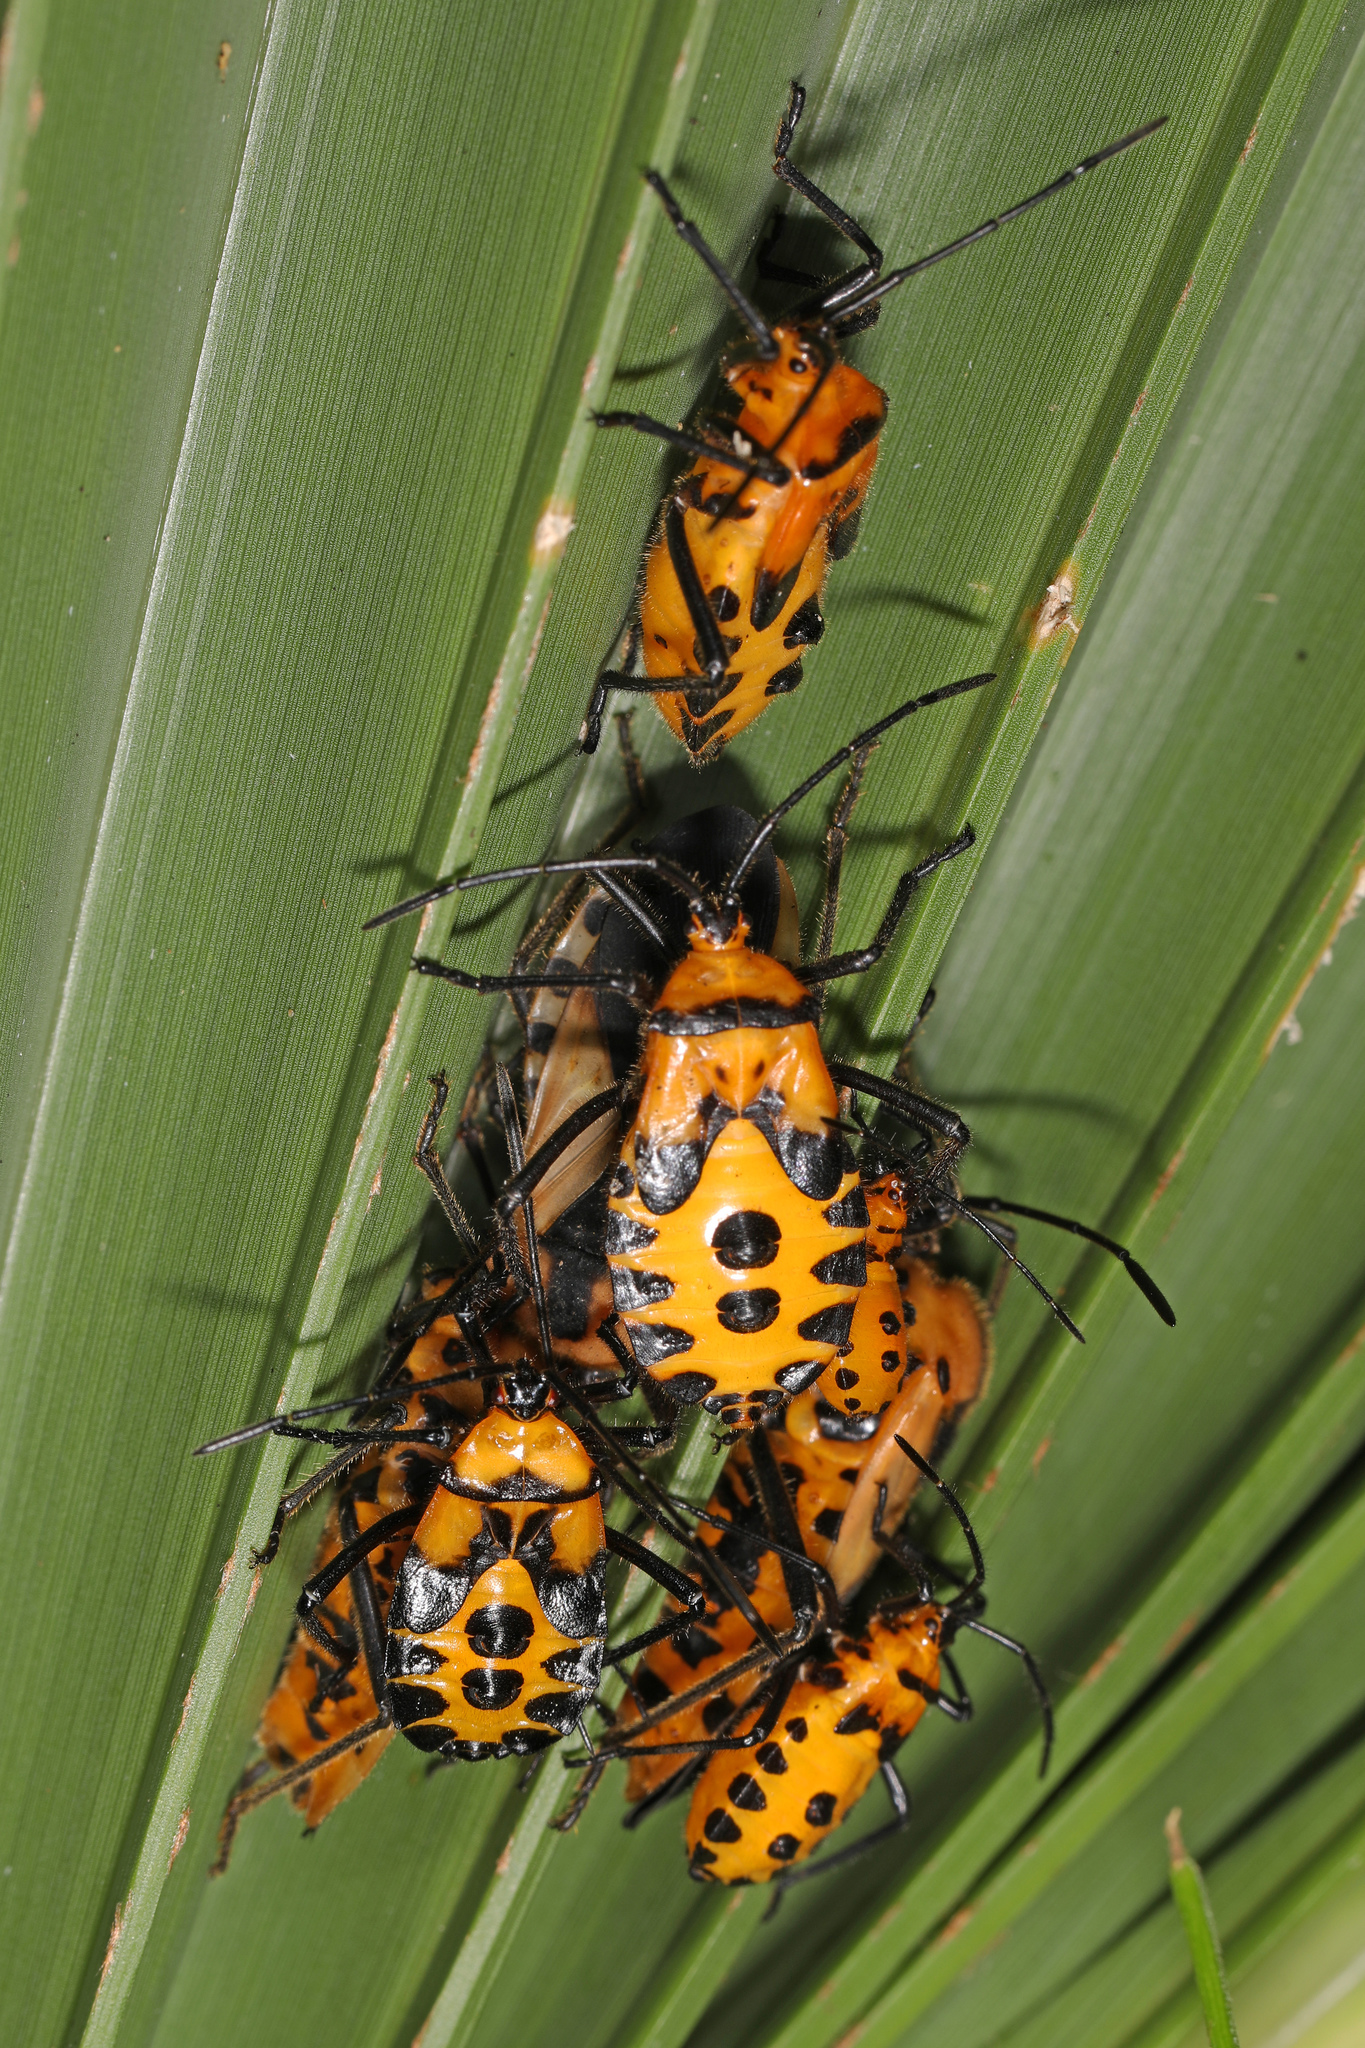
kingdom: Animalia
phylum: Arthropoda
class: Insecta
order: Hemiptera
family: Coreidae
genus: Sephina
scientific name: Sephina gundlachii
